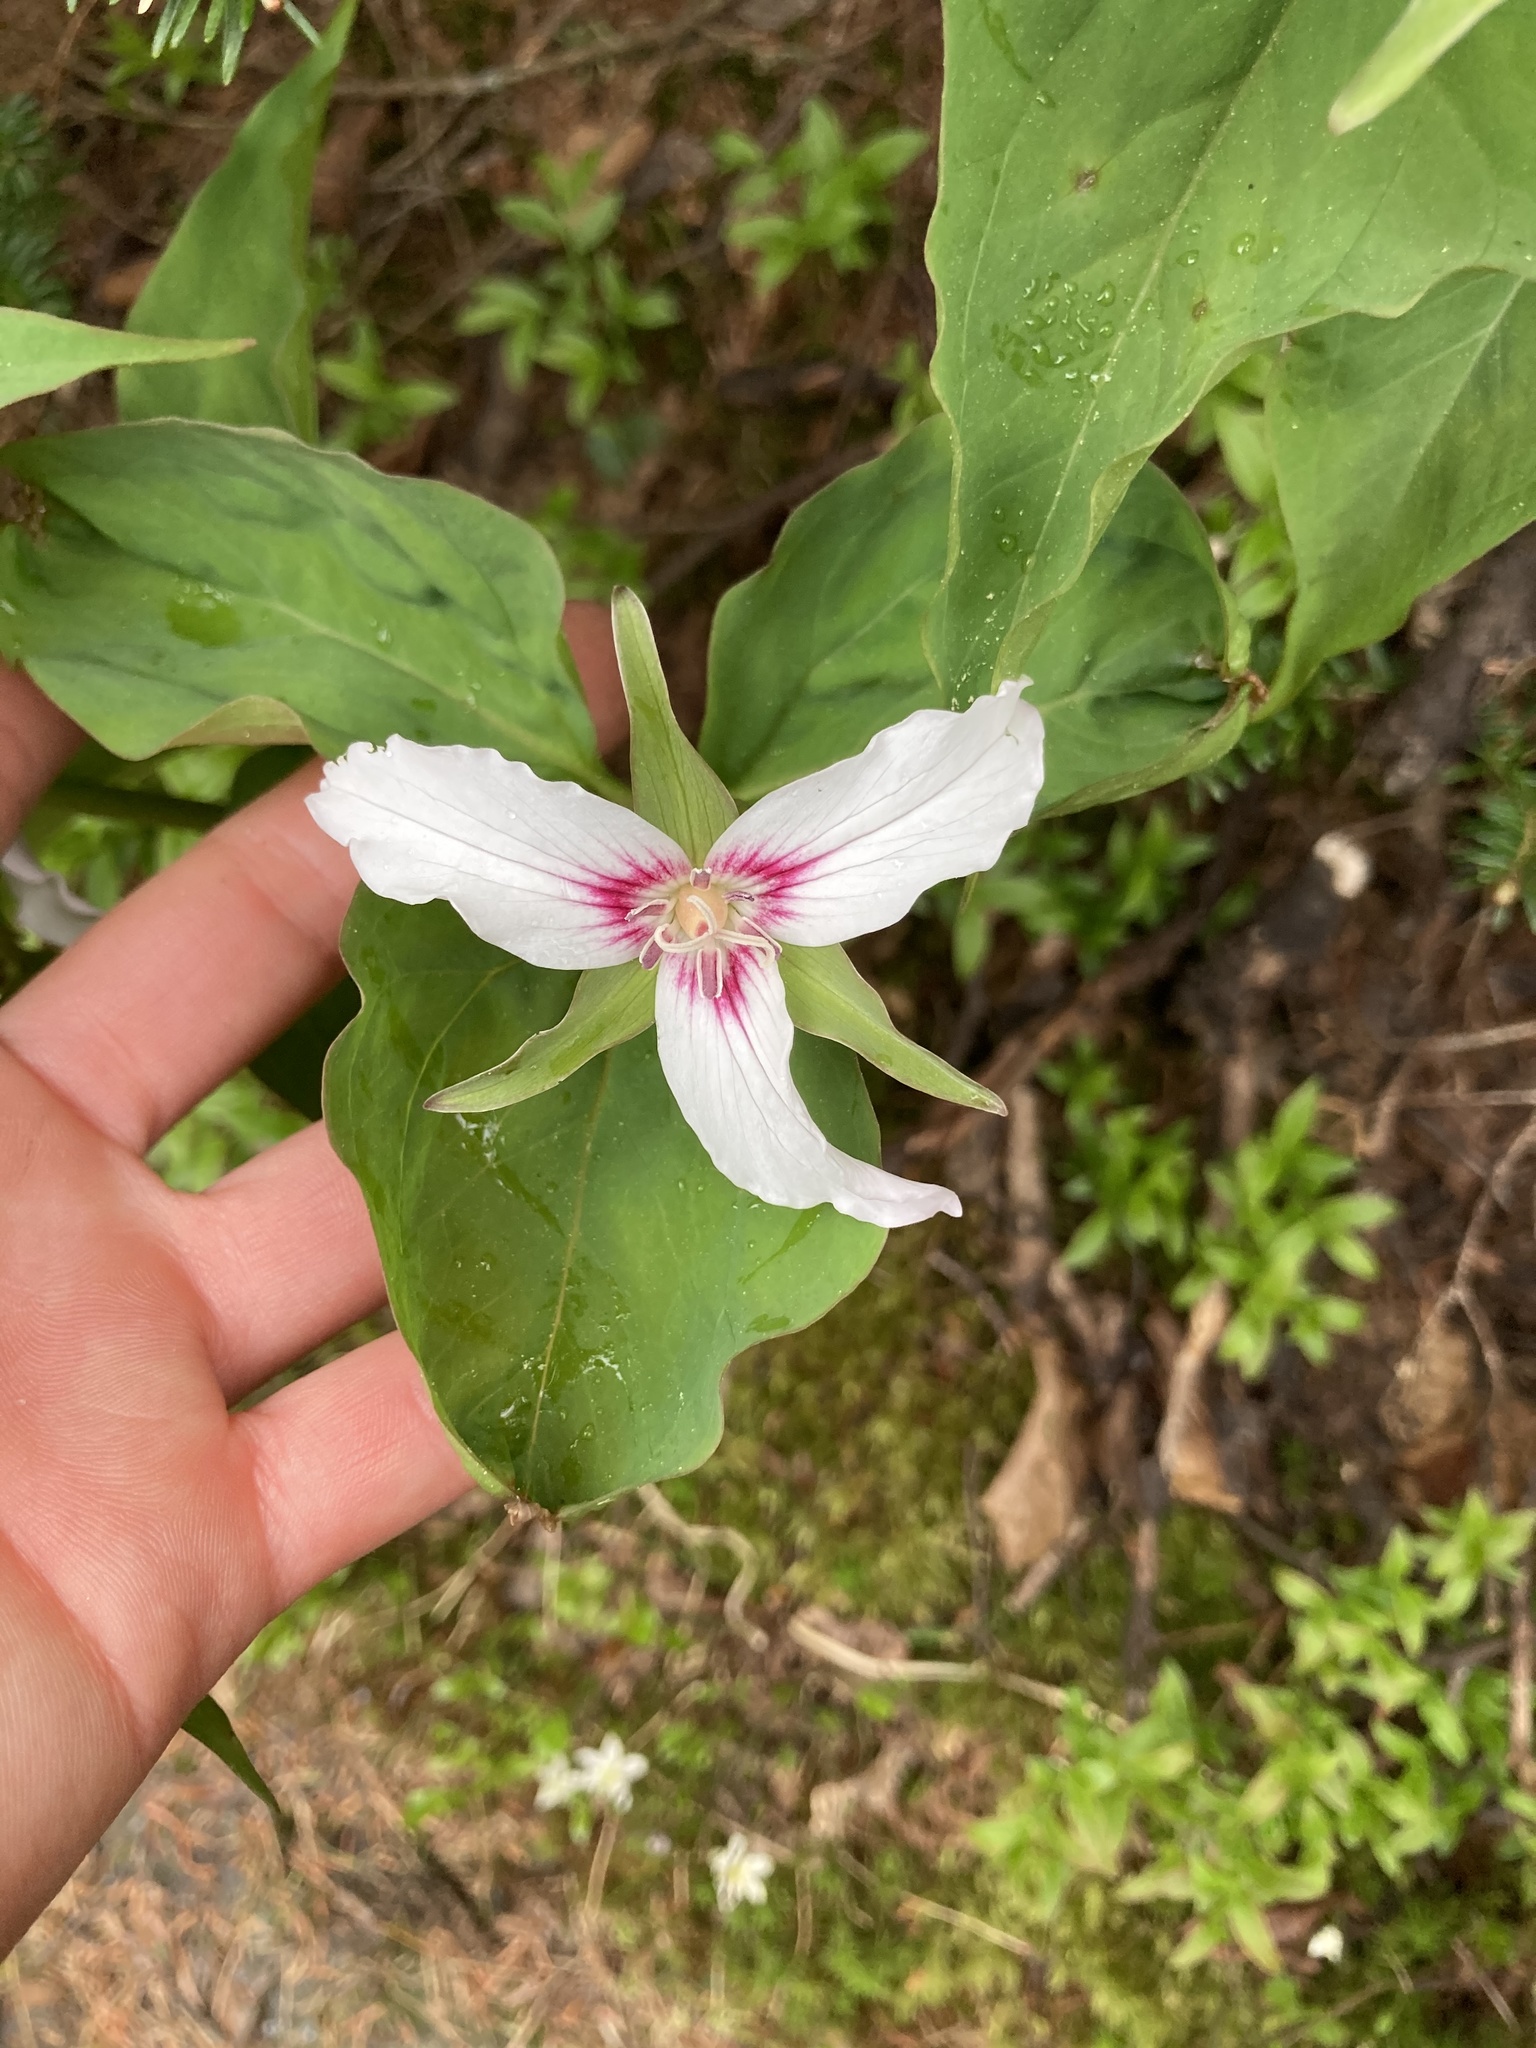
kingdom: Plantae
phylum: Tracheophyta
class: Liliopsida
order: Liliales
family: Melanthiaceae
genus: Trillium
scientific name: Trillium undulatum
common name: Paint trillium
